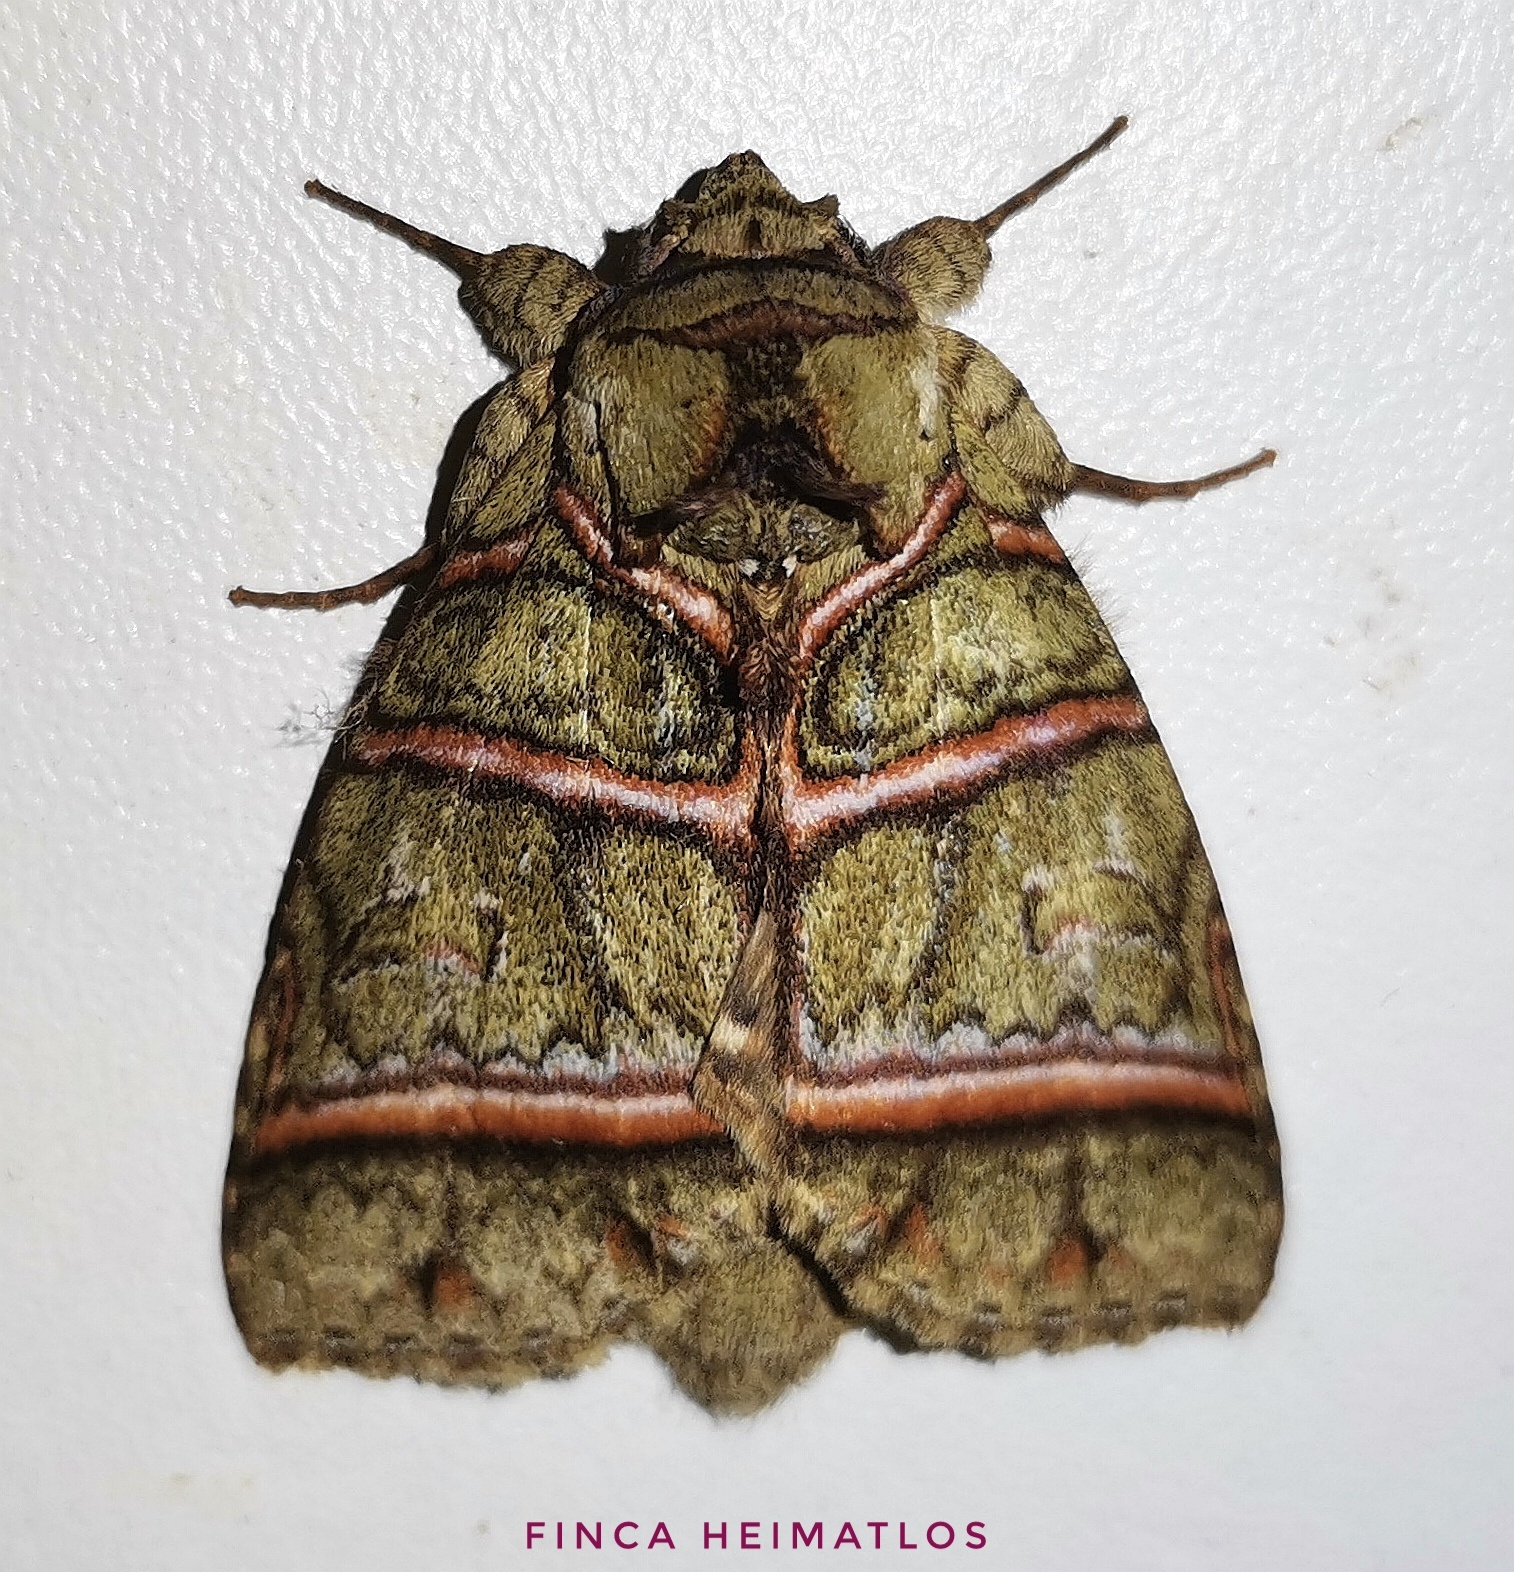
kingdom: Animalia
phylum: Arthropoda
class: Insecta
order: Lepidoptera
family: Notodontidae
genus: Eragisa
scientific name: Eragisa antarorum
